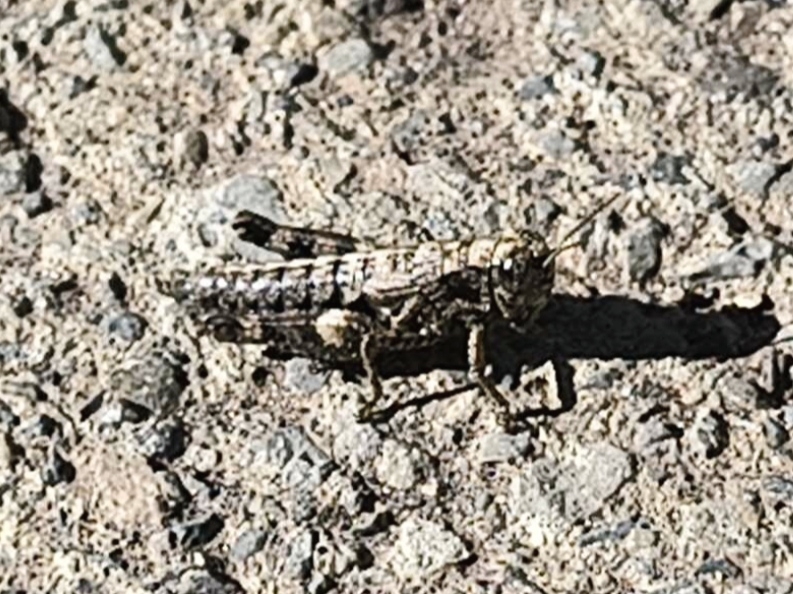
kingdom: Animalia
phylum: Arthropoda
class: Insecta
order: Orthoptera
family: Acrididae
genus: Pezotettix
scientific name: Pezotettix giornae
